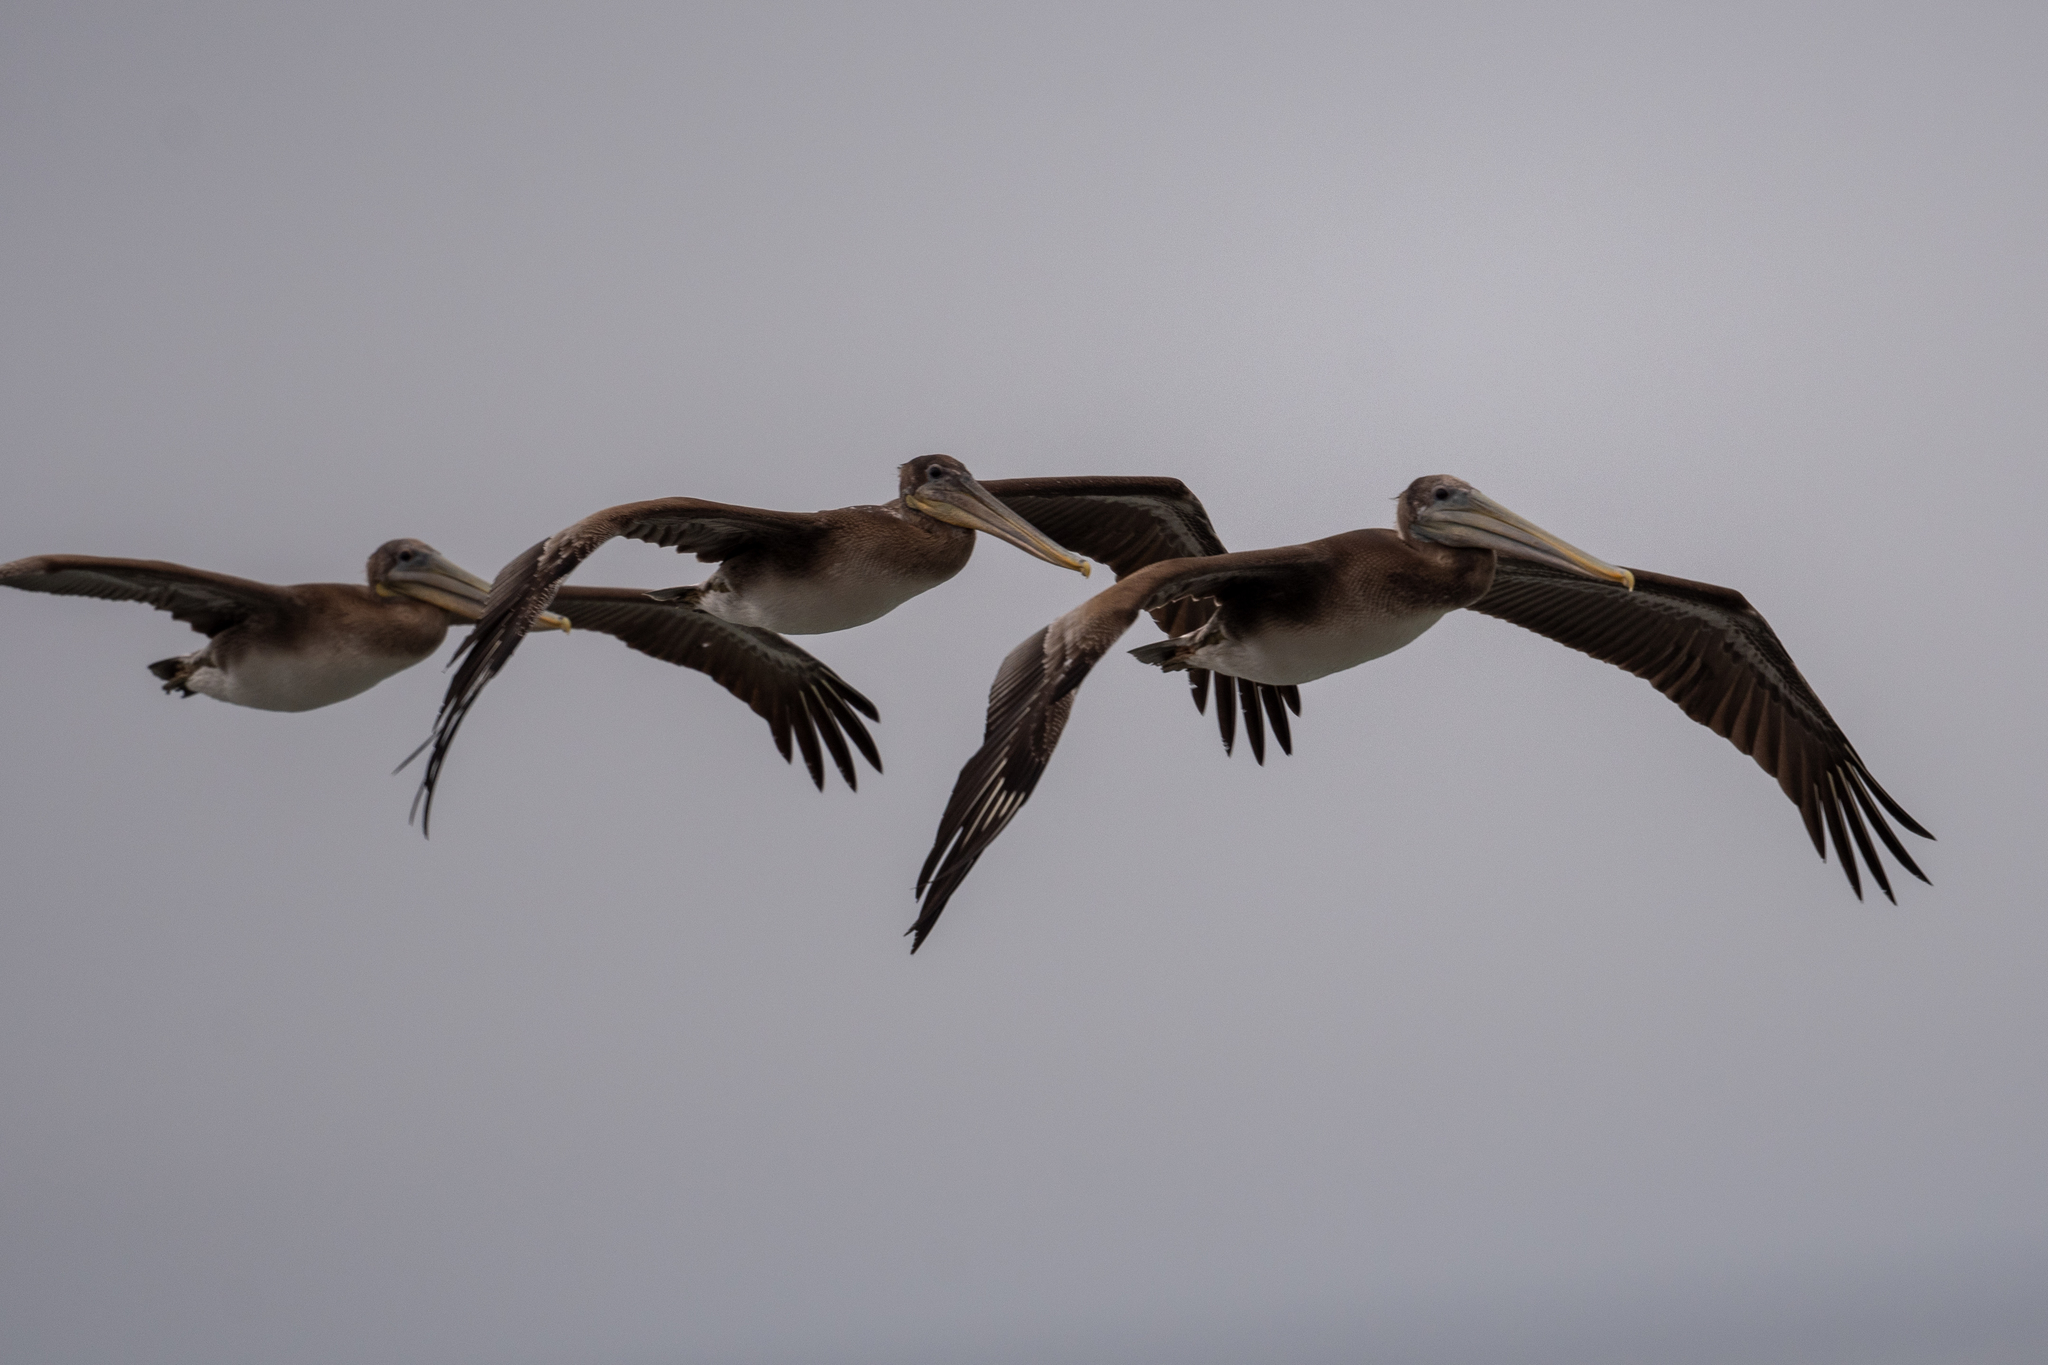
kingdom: Animalia
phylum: Chordata
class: Aves
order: Pelecaniformes
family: Pelecanidae
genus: Pelecanus
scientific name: Pelecanus occidentalis
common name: Brown pelican
